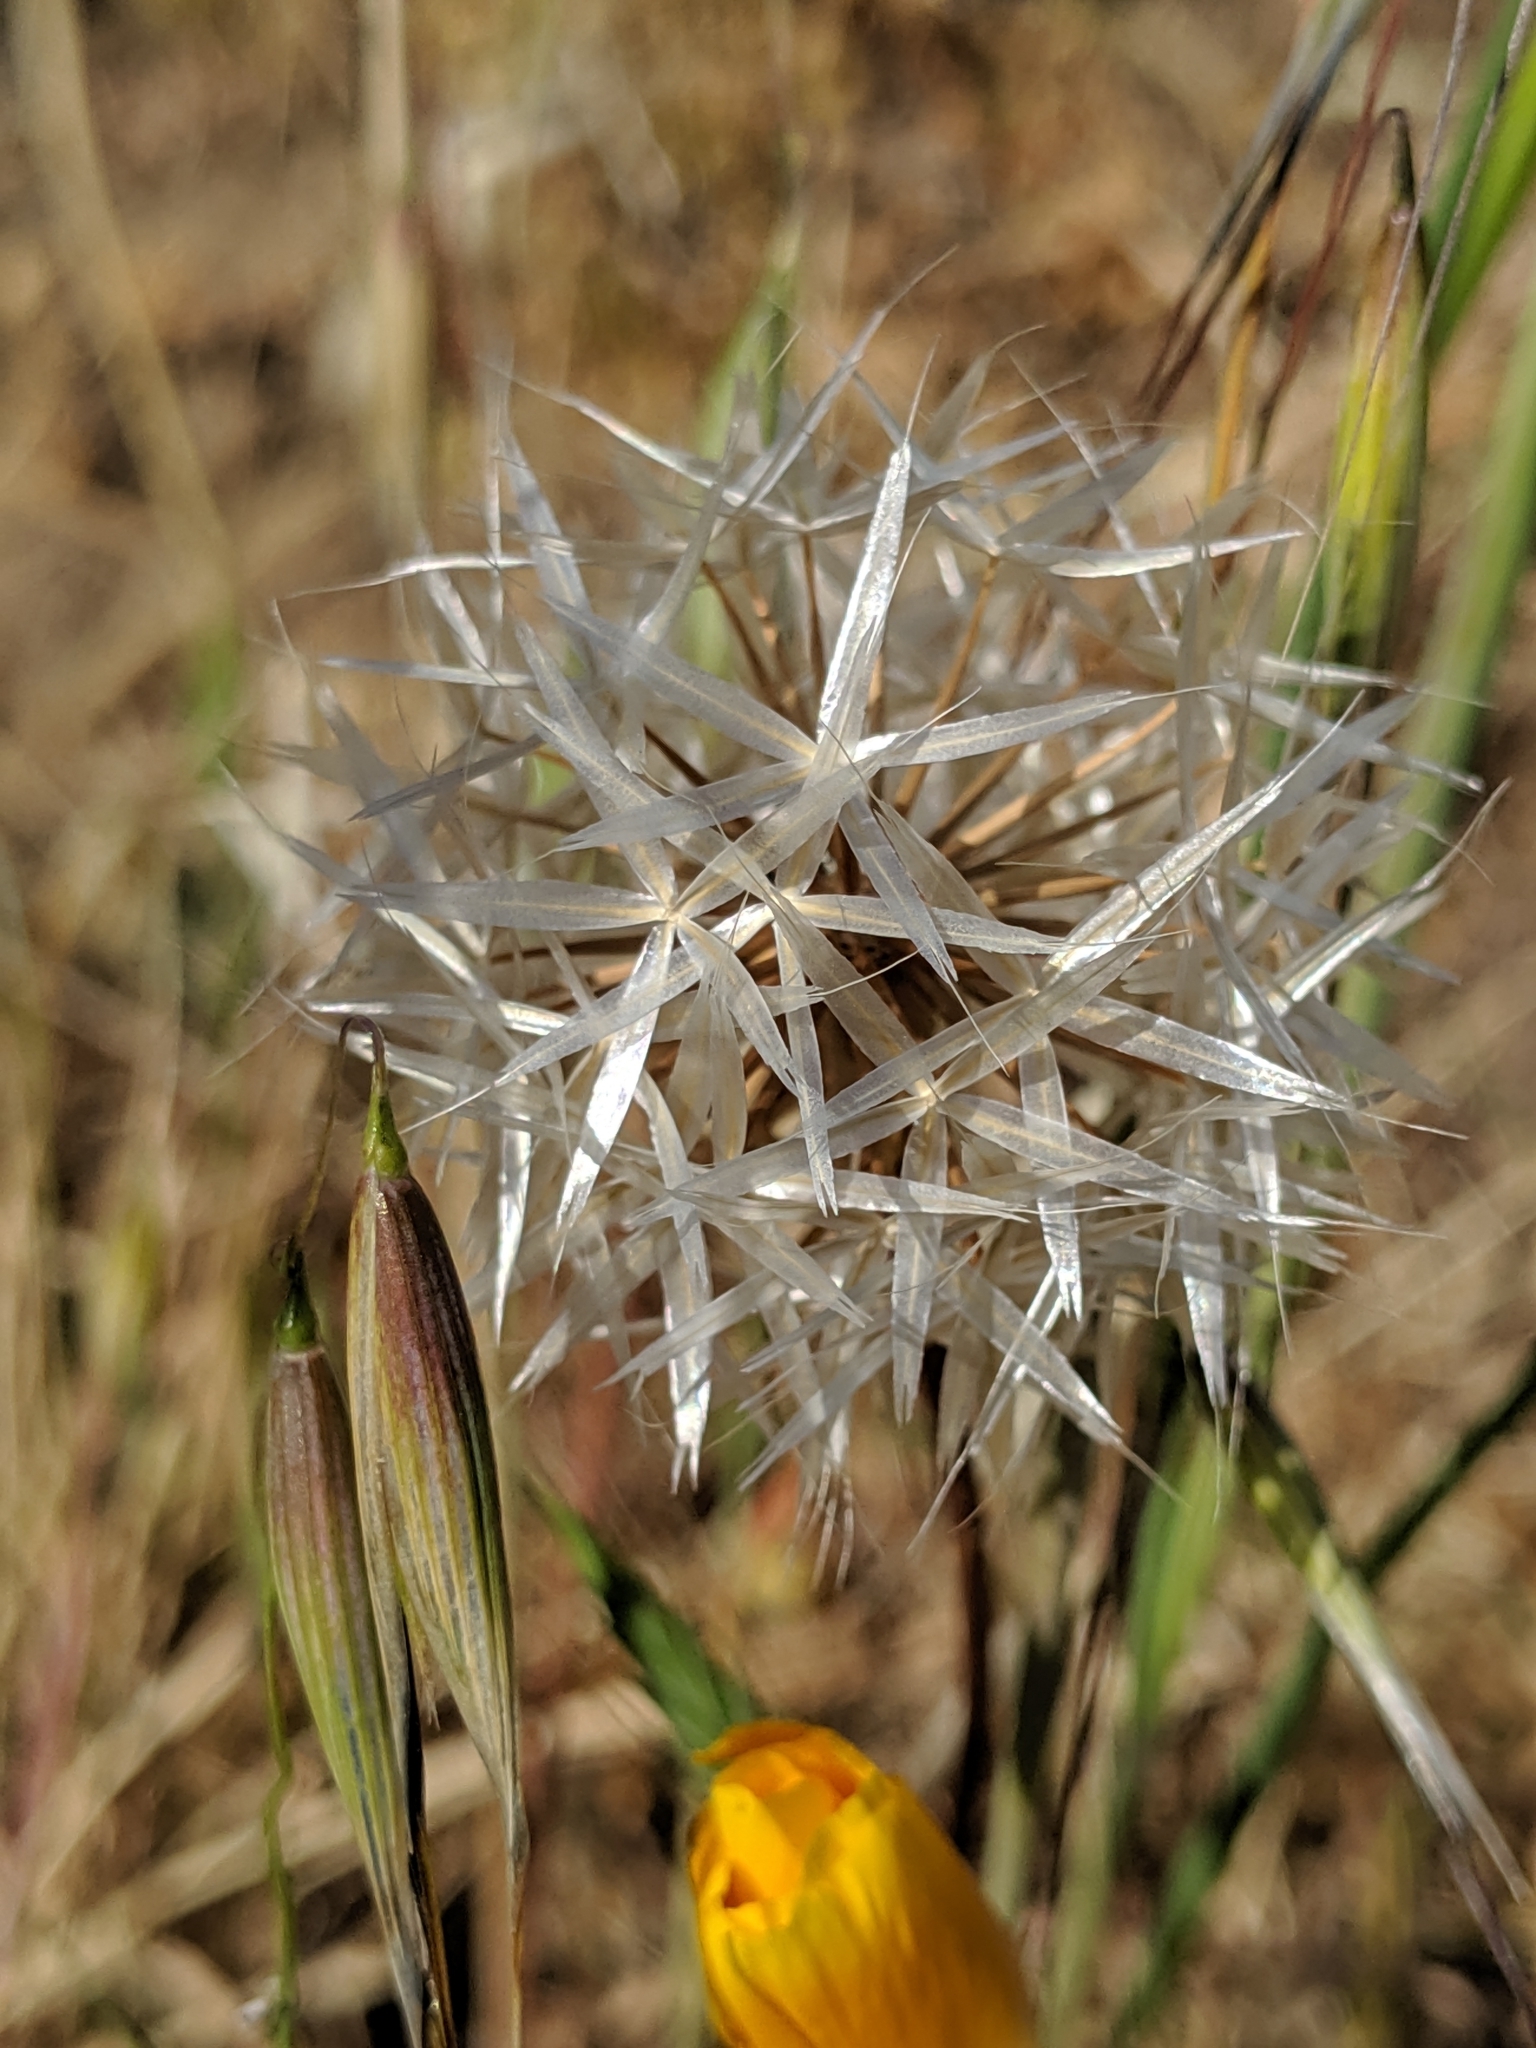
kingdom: Plantae
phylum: Tracheophyta
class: Magnoliopsida
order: Asterales
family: Asteraceae
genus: Microseris
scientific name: Microseris lindleyi
